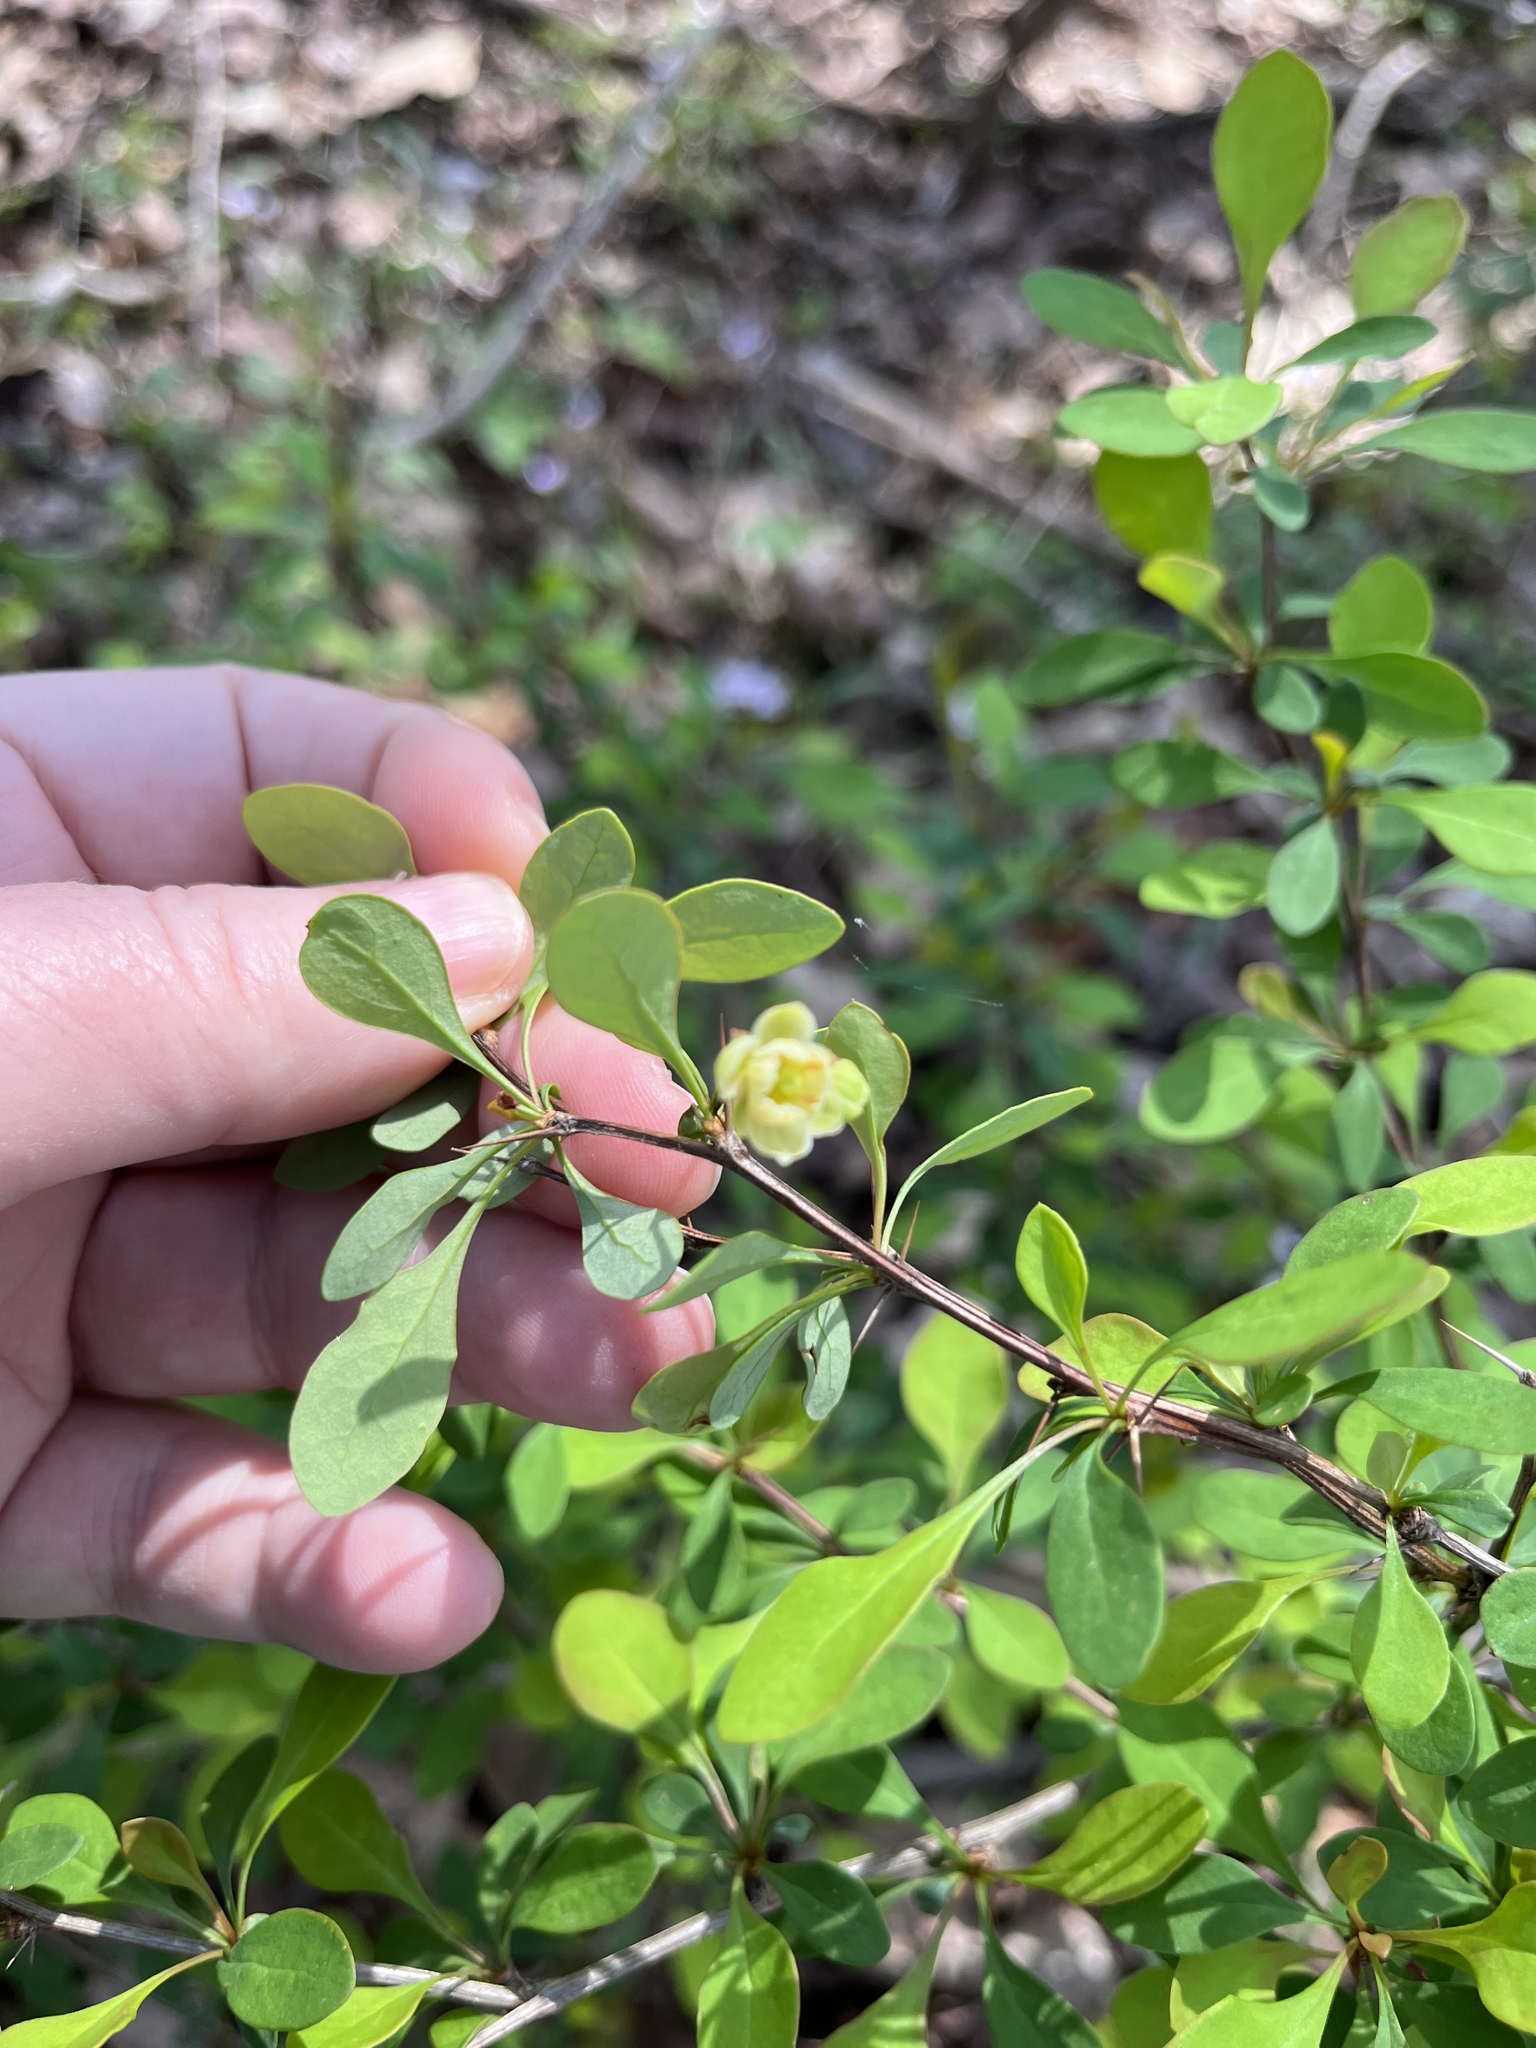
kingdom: Plantae
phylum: Tracheophyta
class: Magnoliopsida
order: Ranunculales
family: Berberidaceae
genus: Berberis
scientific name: Berberis thunbergii
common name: Japanese barberry
